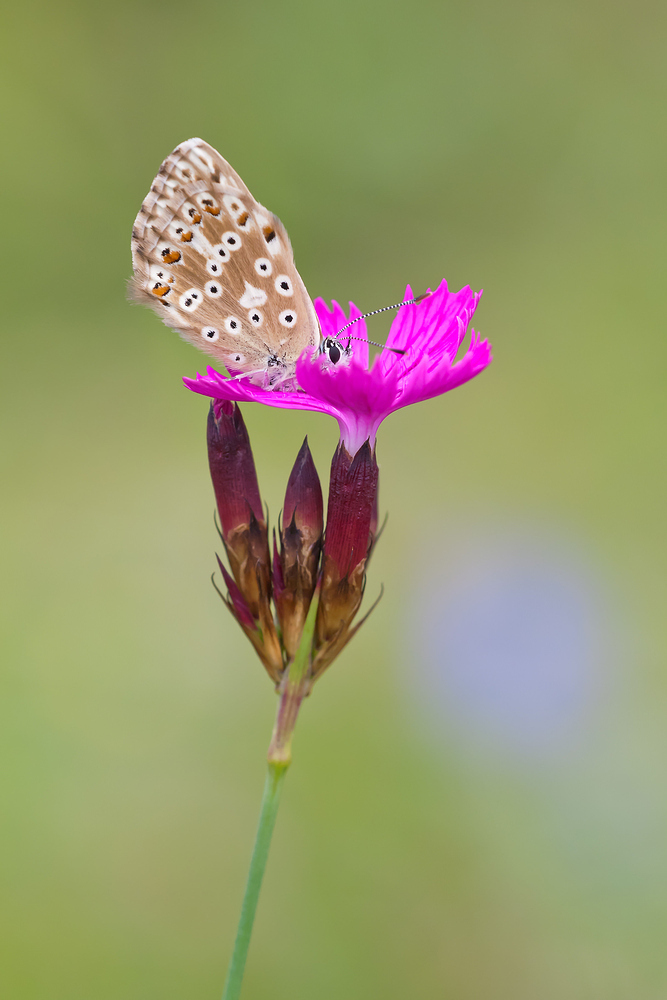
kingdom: Animalia
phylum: Arthropoda
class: Insecta
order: Lepidoptera
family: Lycaenidae
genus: Lysandra
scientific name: Lysandra coridon
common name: Chalkhill blue
